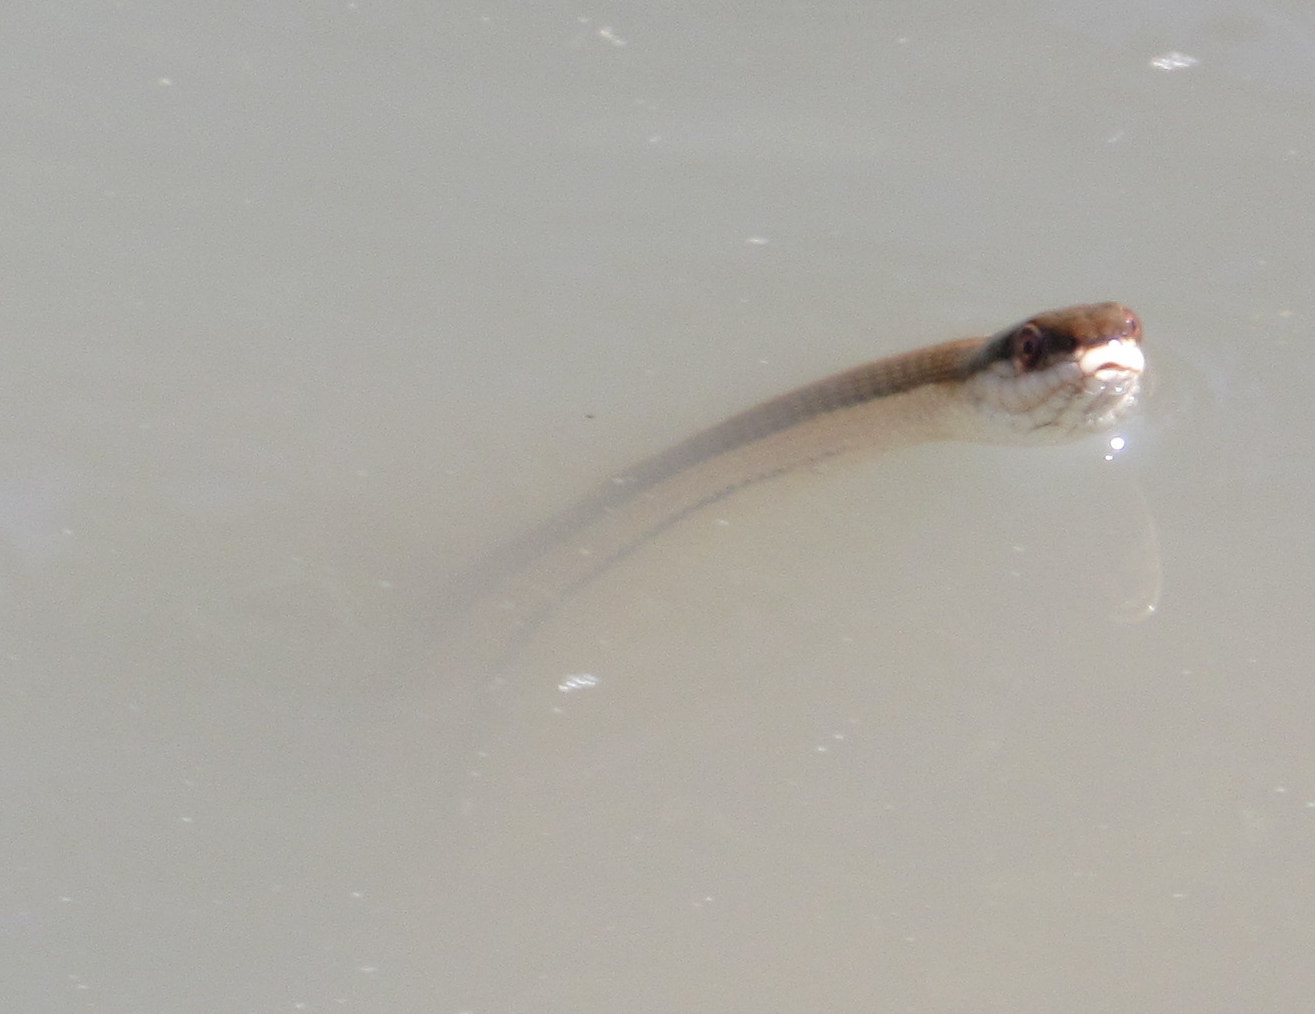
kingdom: Animalia
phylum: Chordata
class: Squamata
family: Colubridae
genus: Regina
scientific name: Regina grahamii
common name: Graham's crayfish snake
